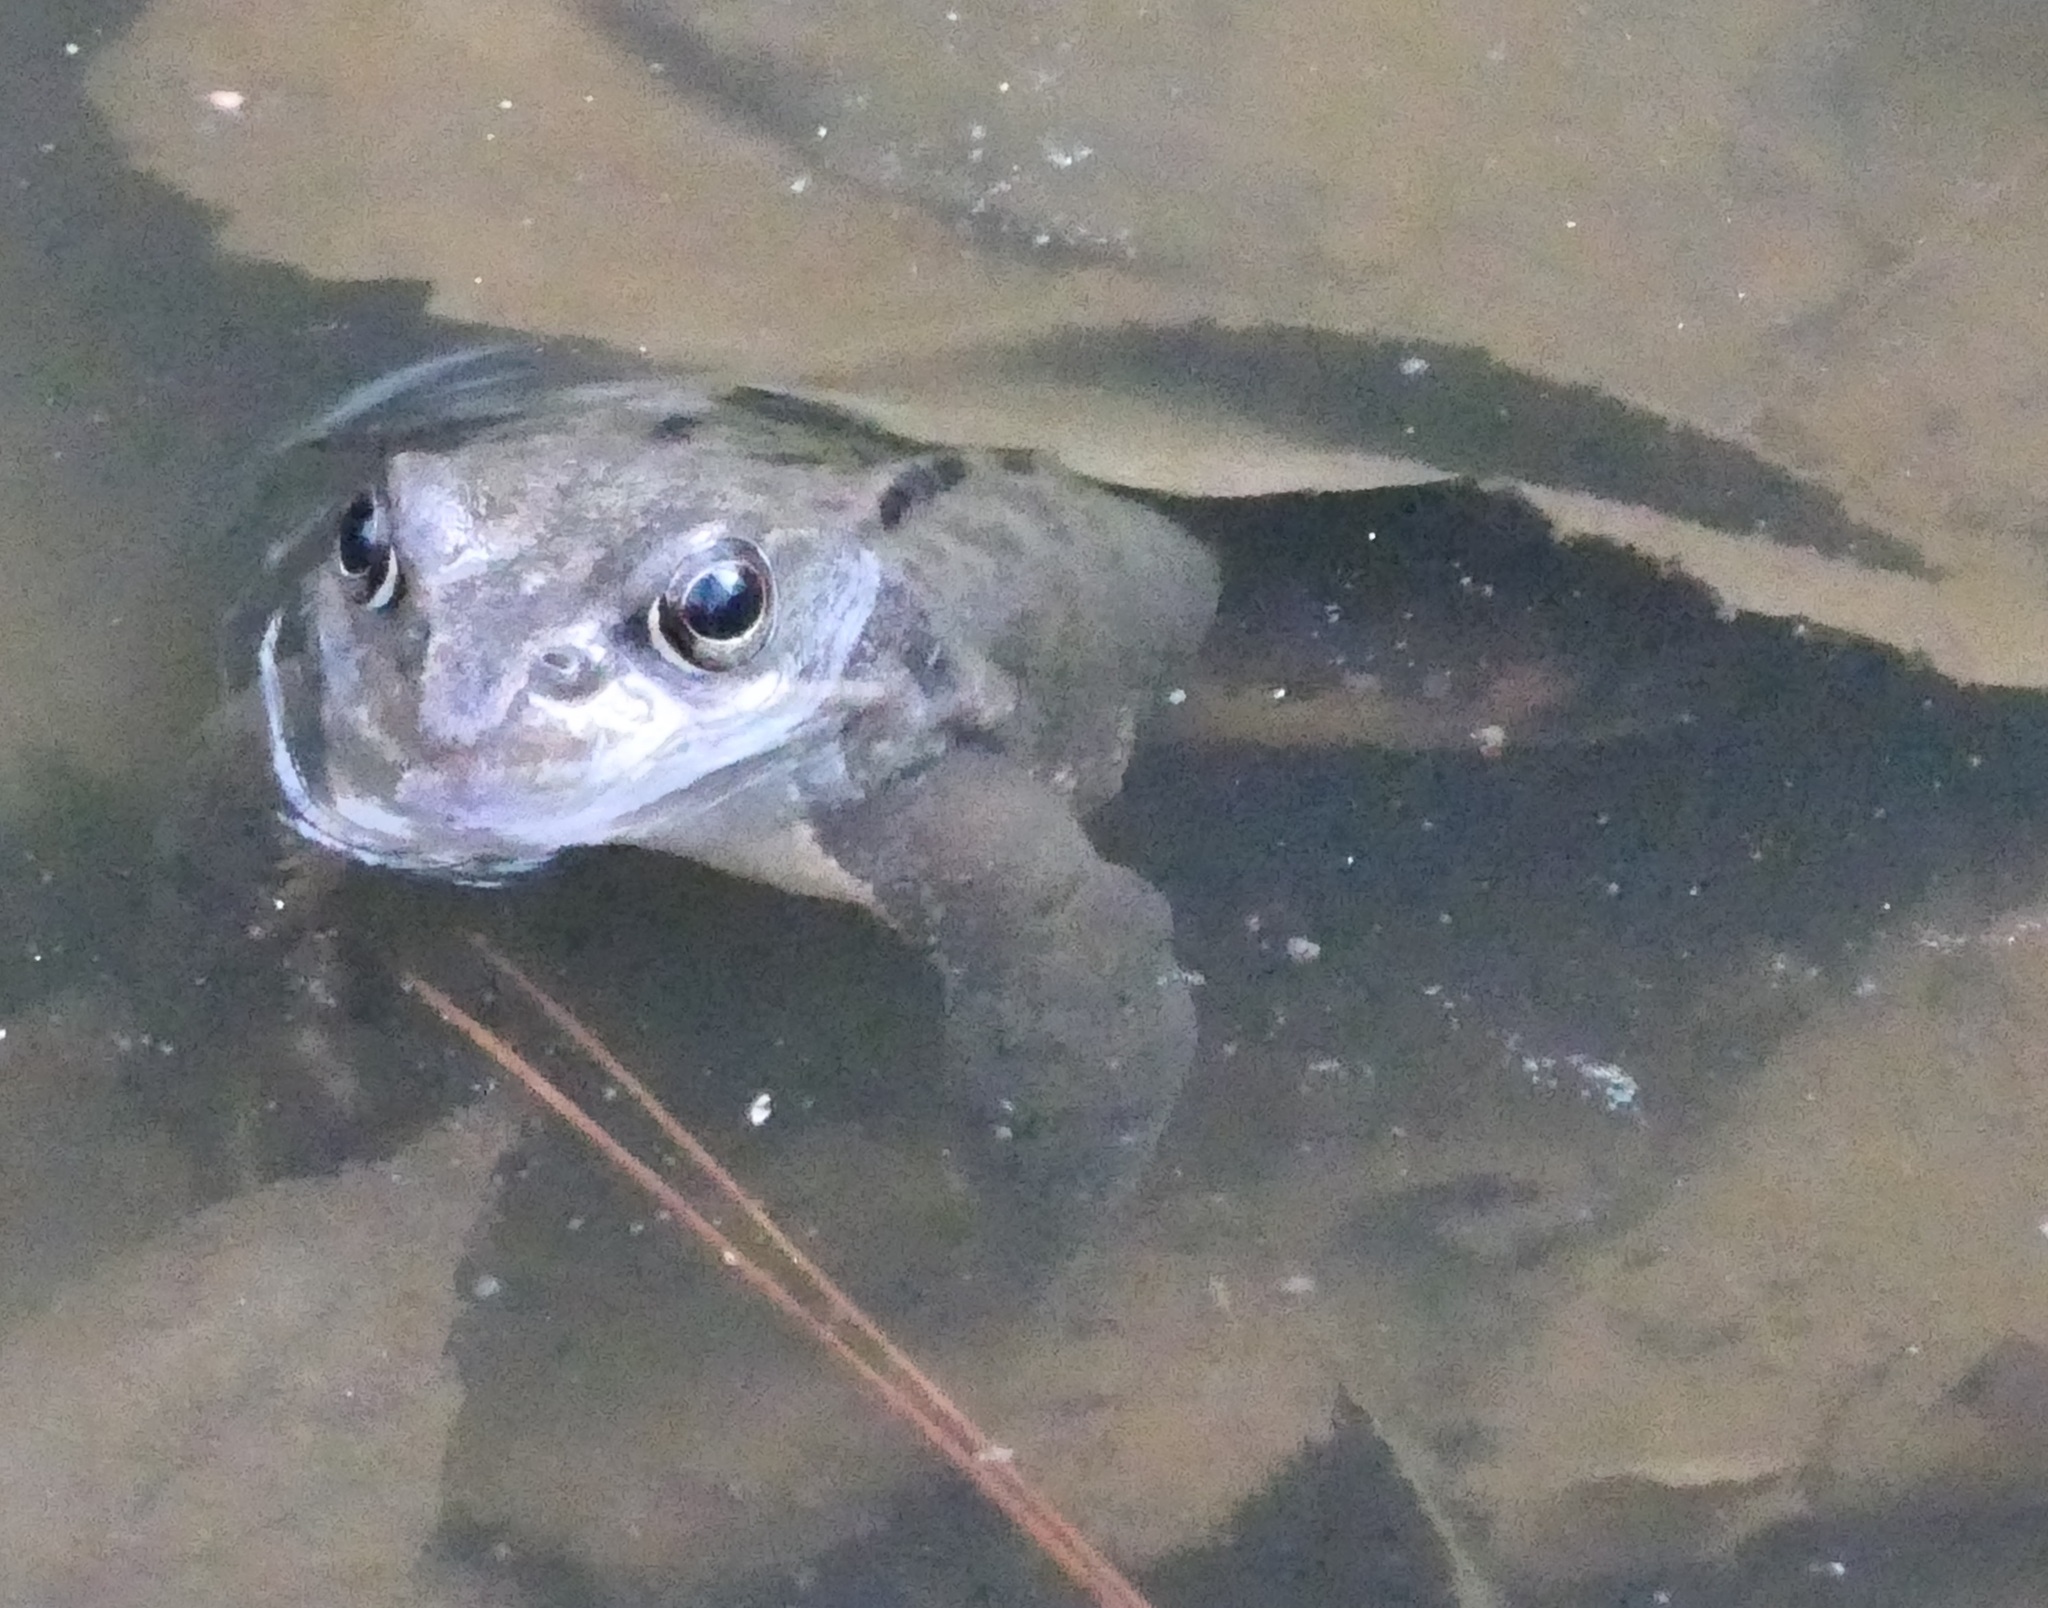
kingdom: Animalia
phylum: Chordata
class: Amphibia
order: Anura
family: Ranidae
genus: Rana
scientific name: Rana temporaria
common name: Common frog
